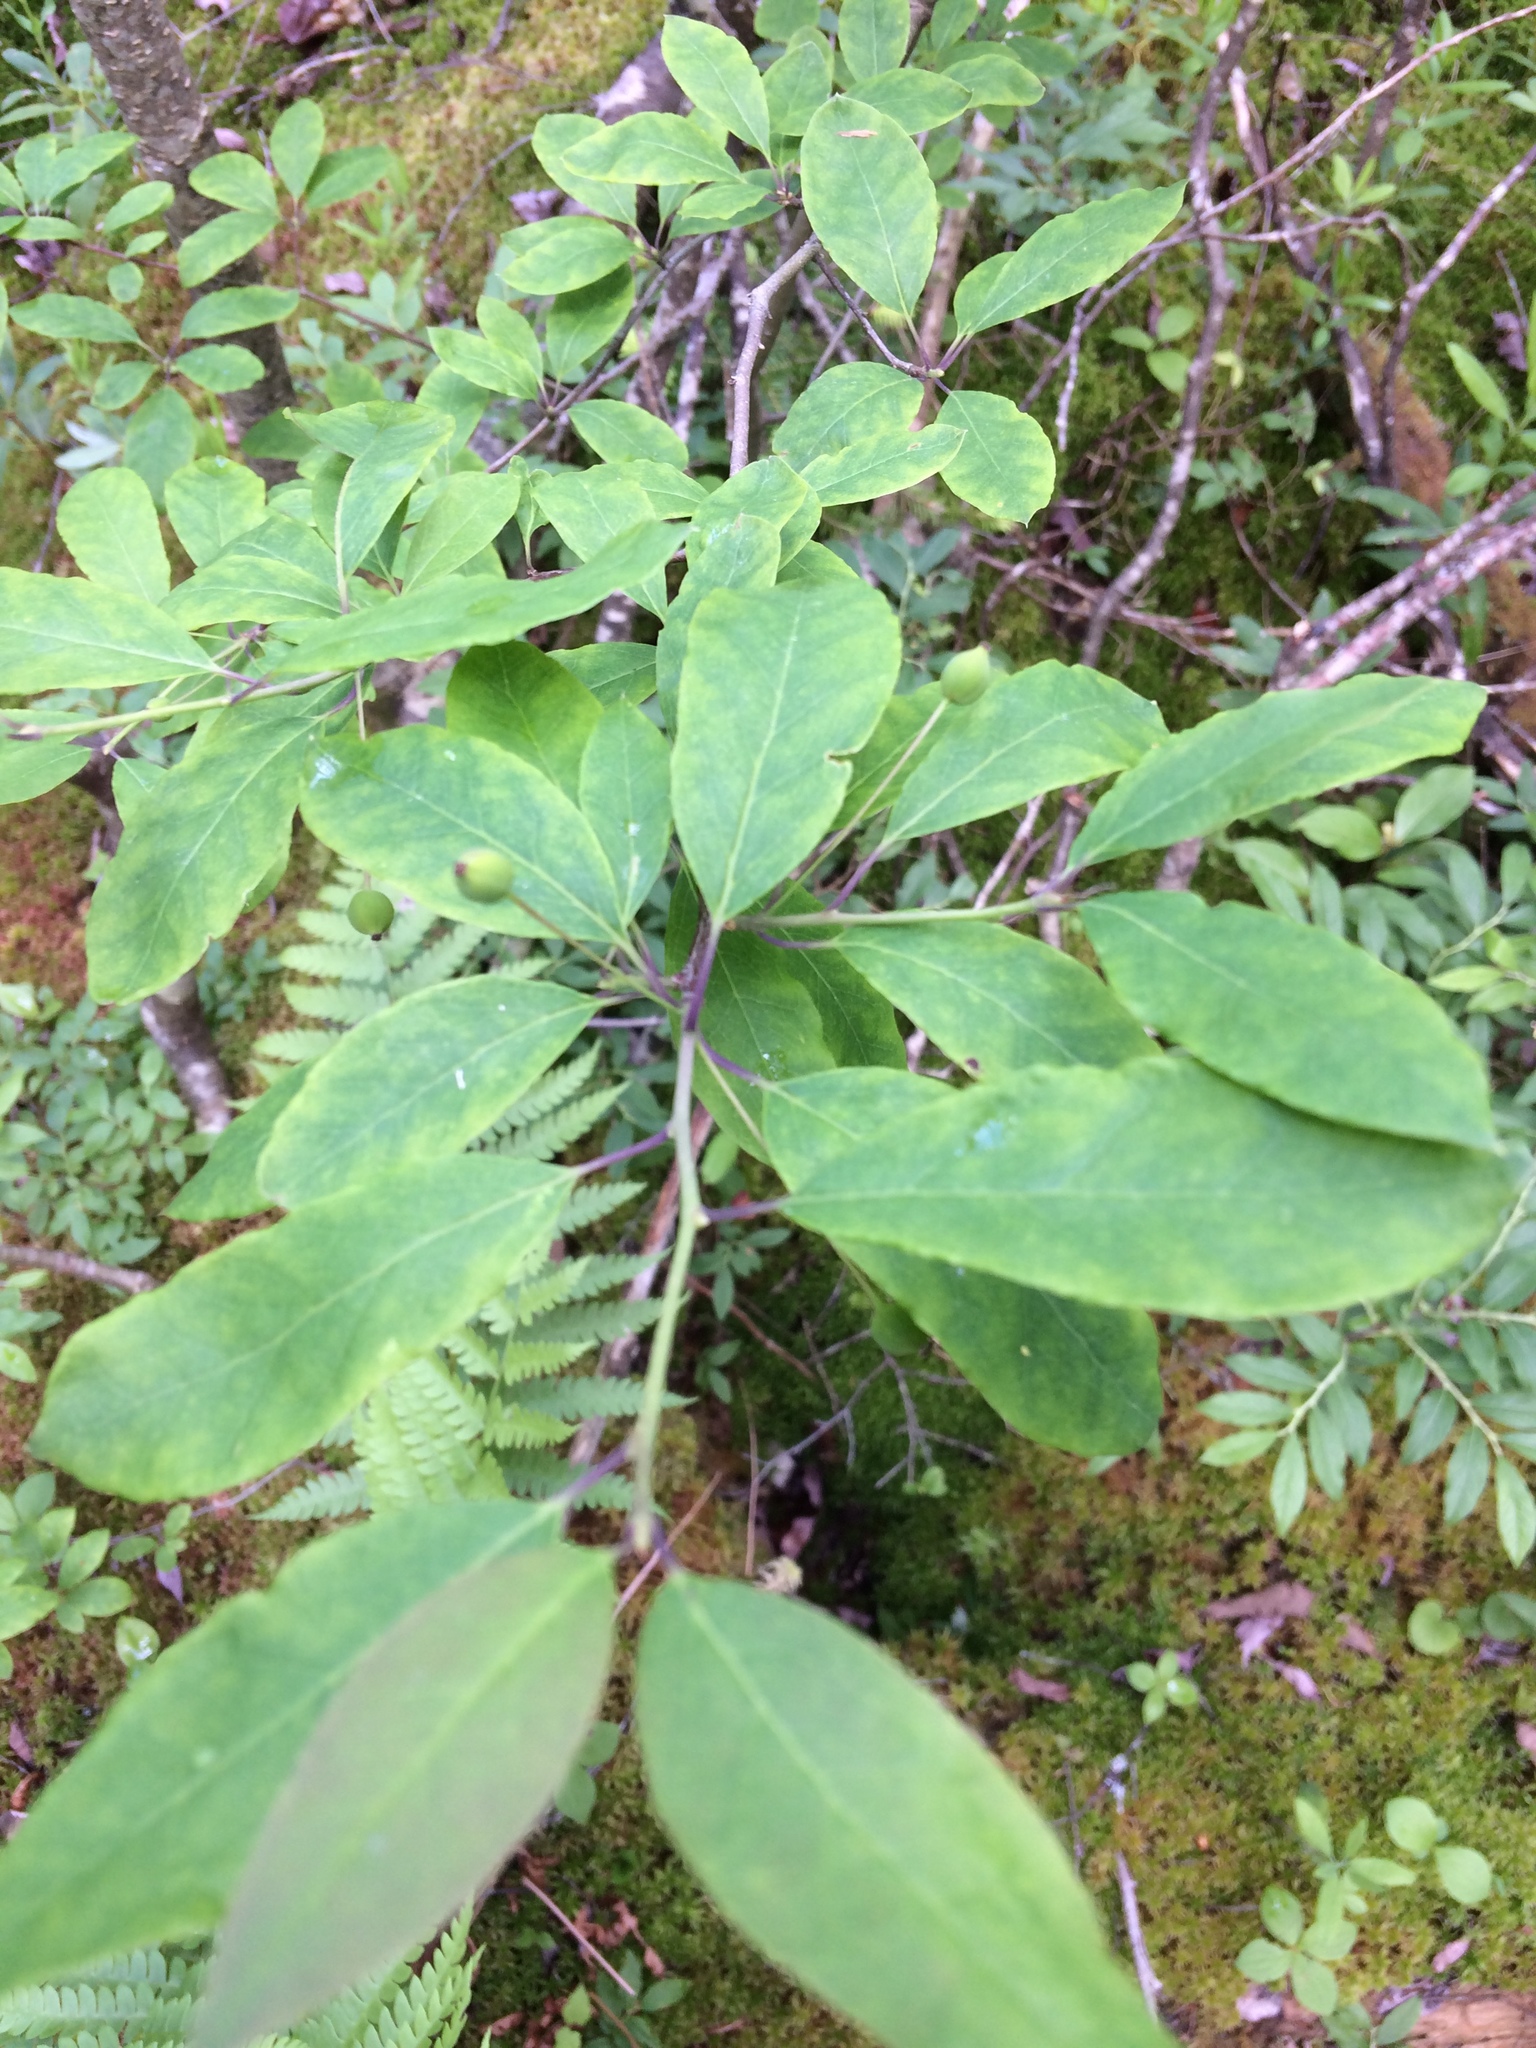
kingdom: Plantae
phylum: Tracheophyta
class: Magnoliopsida
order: Aquifoliales
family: Aquifoliaceae
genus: Ilex
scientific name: Ilex mucronata
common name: Catberry
